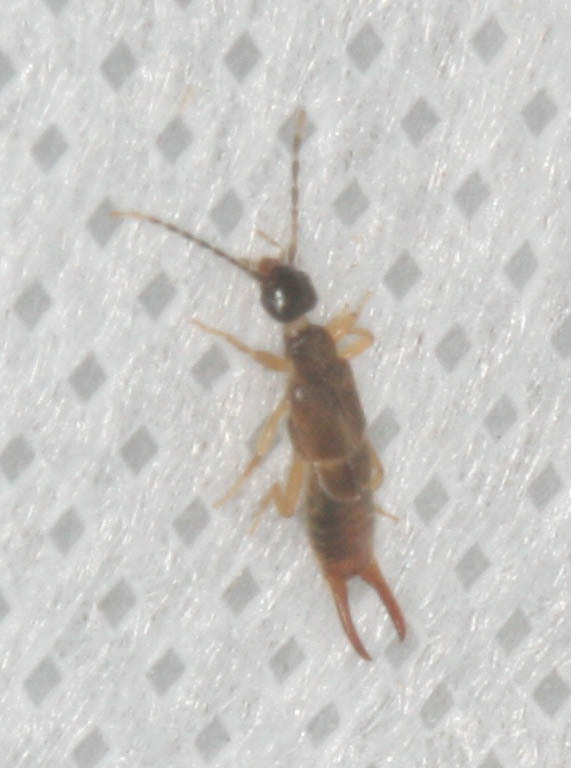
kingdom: Animalia
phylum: Arthropoda
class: Insecta
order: Dermaptera
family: Spongiphoridae
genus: Labia
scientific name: Labia minor
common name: Lesser earwig
